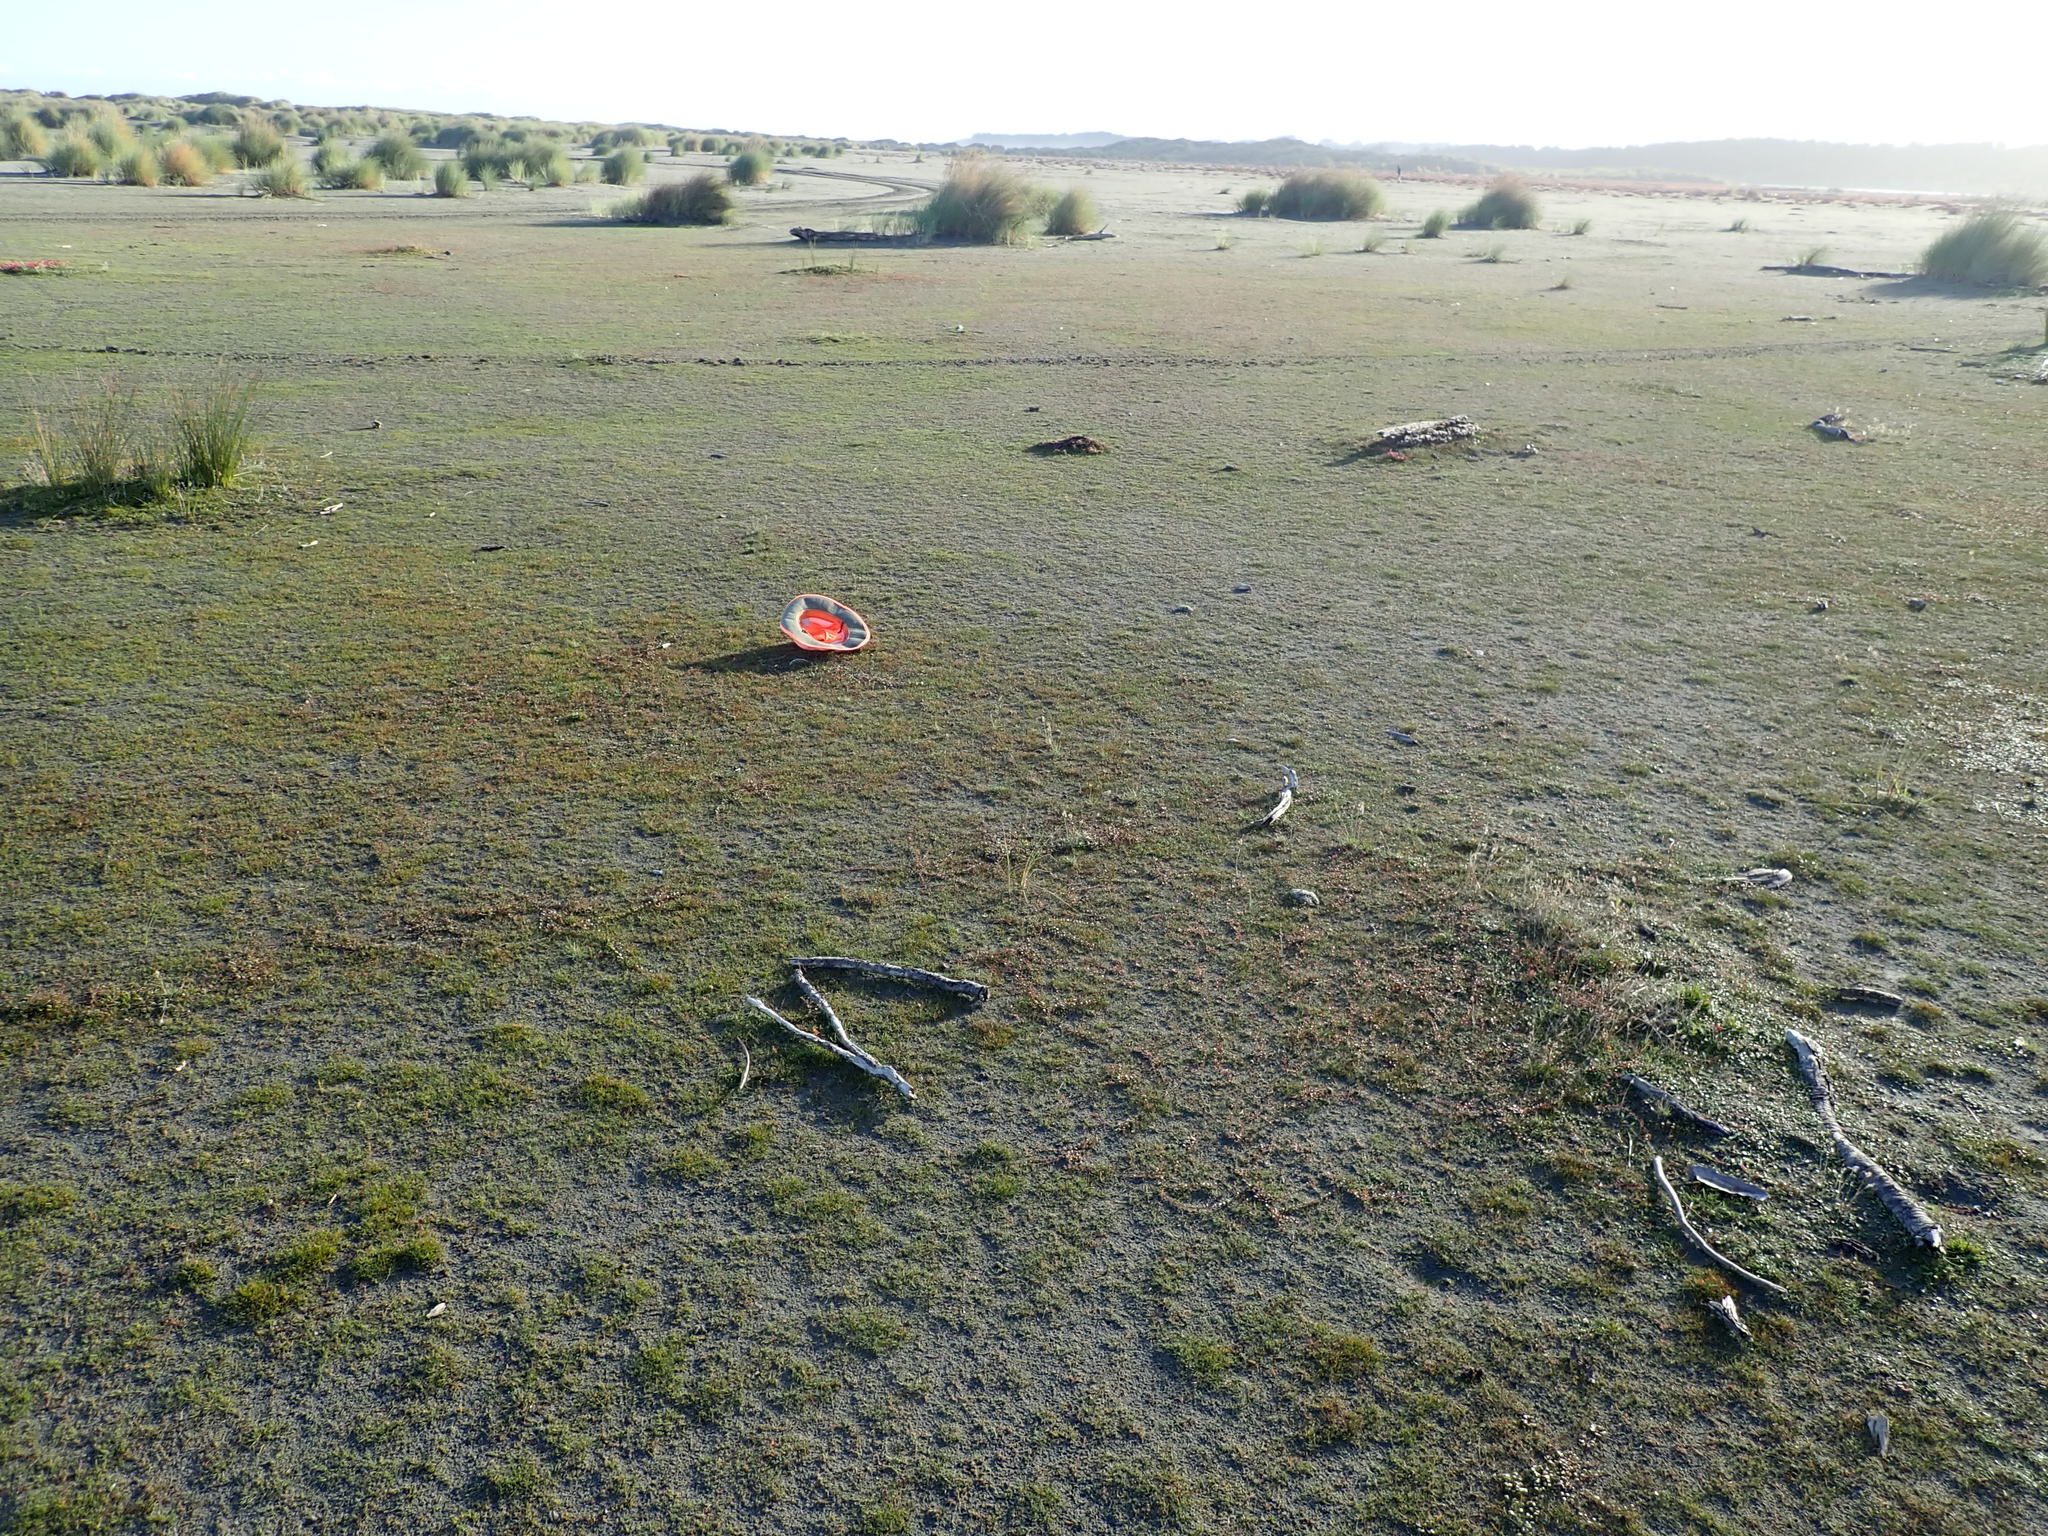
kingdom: Plantae
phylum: Tracheophyta
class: Magnoliopsida
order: Ericales
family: Primulaceae
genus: Samolus
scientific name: Samolus repens
